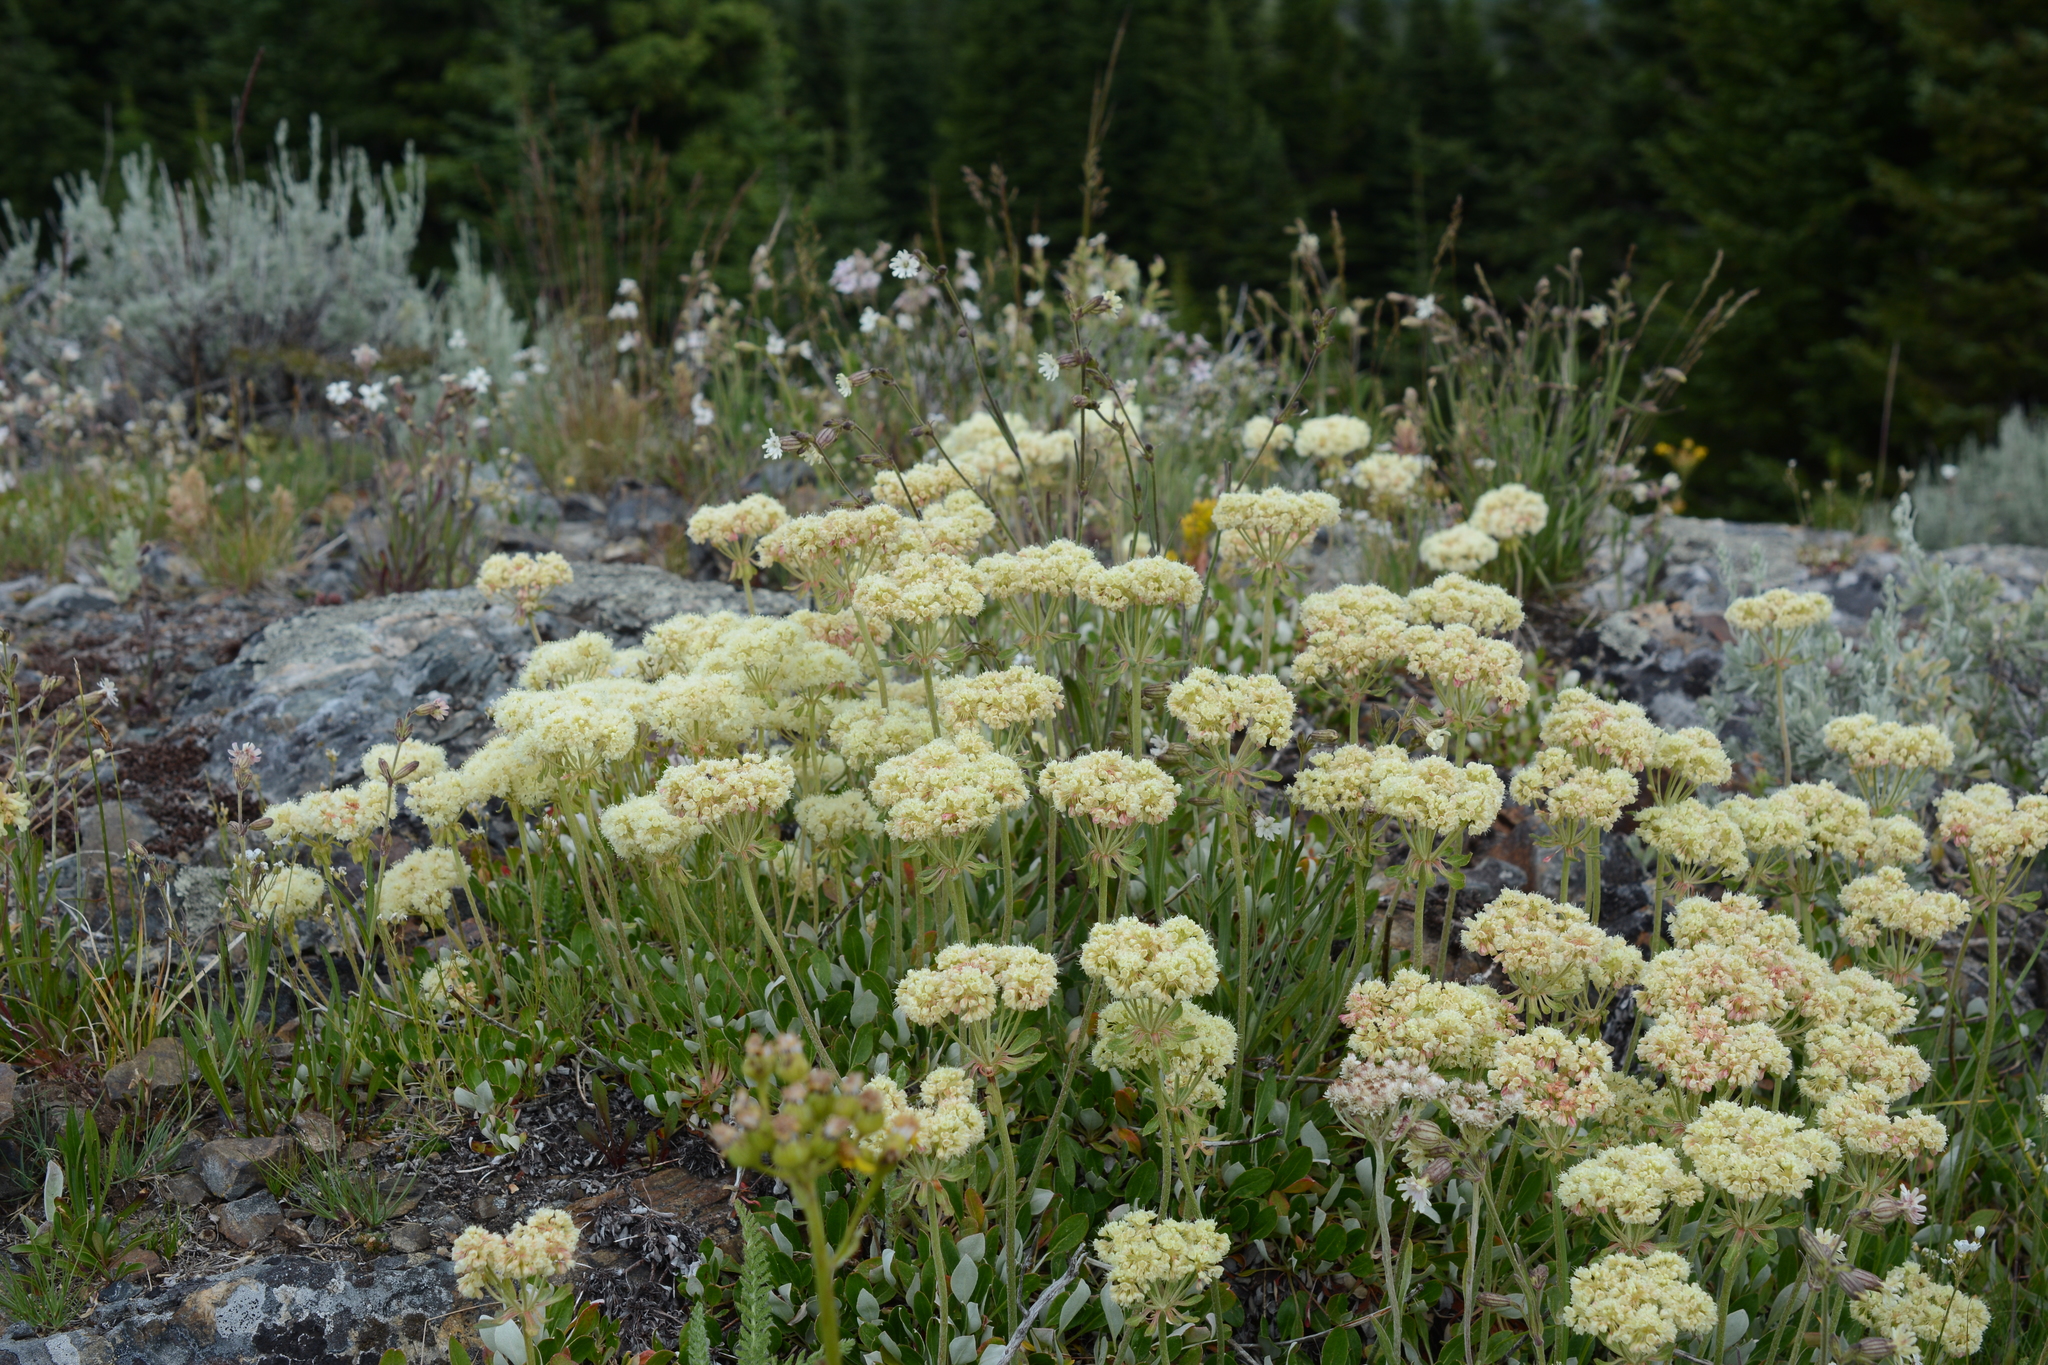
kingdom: Plantae
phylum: Tracheophyta
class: Magnoliopsida
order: Caryophyllales
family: Polygonaceae
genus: Eriogonum
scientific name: Eriogonum umbellatum
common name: Sulfur-buckwheat
